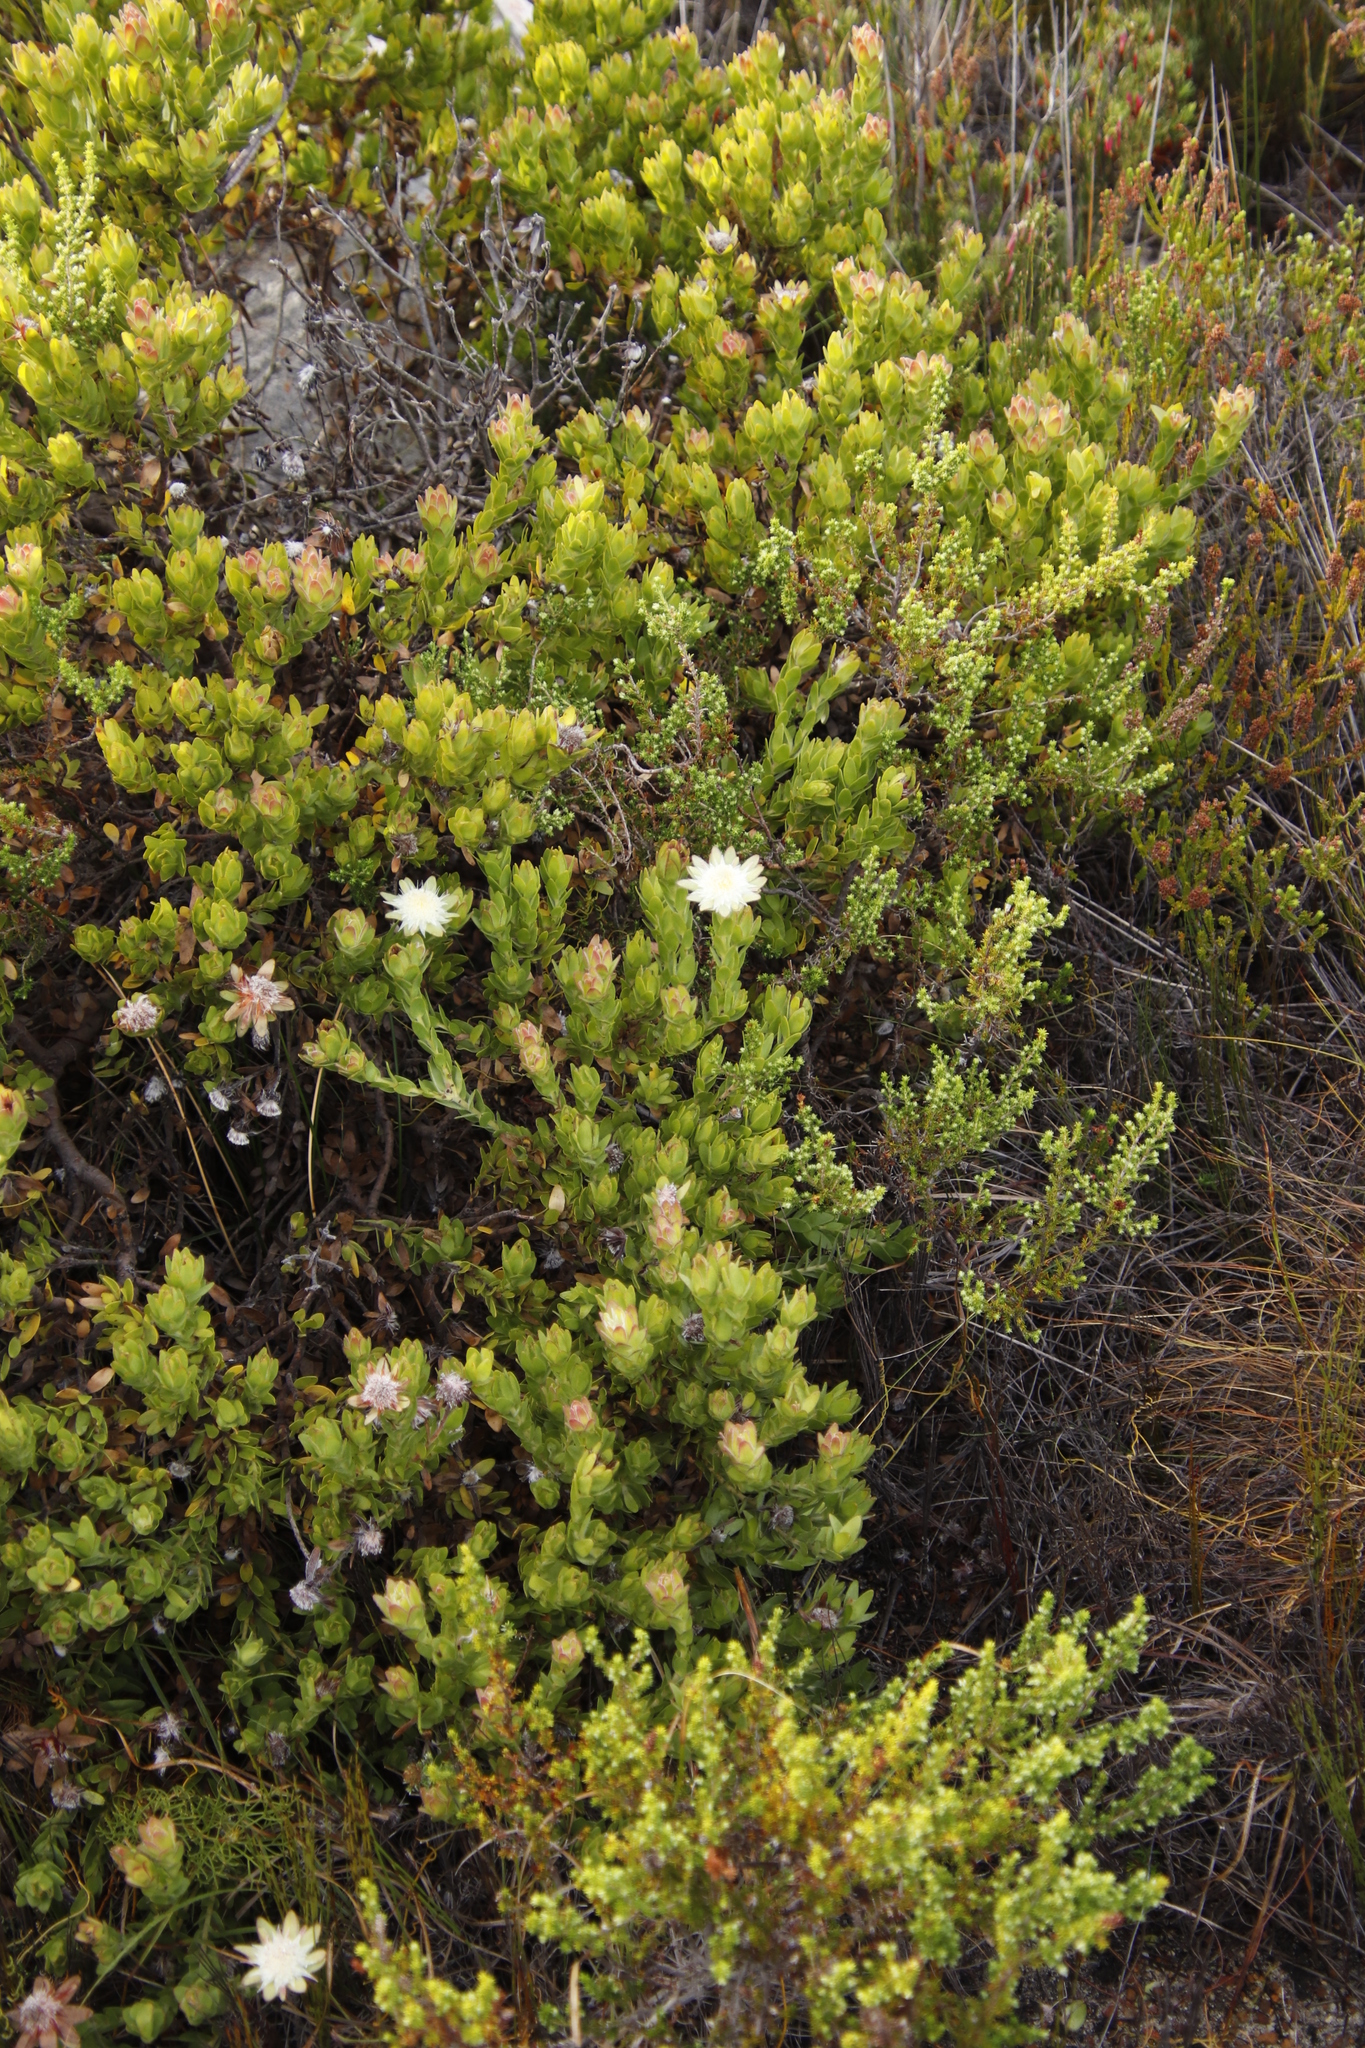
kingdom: Plantae
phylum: Tracheophyta
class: Magnoliopsida
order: Proteales
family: Proteaceae
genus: Diastella
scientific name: Diastella thymelaeoides
